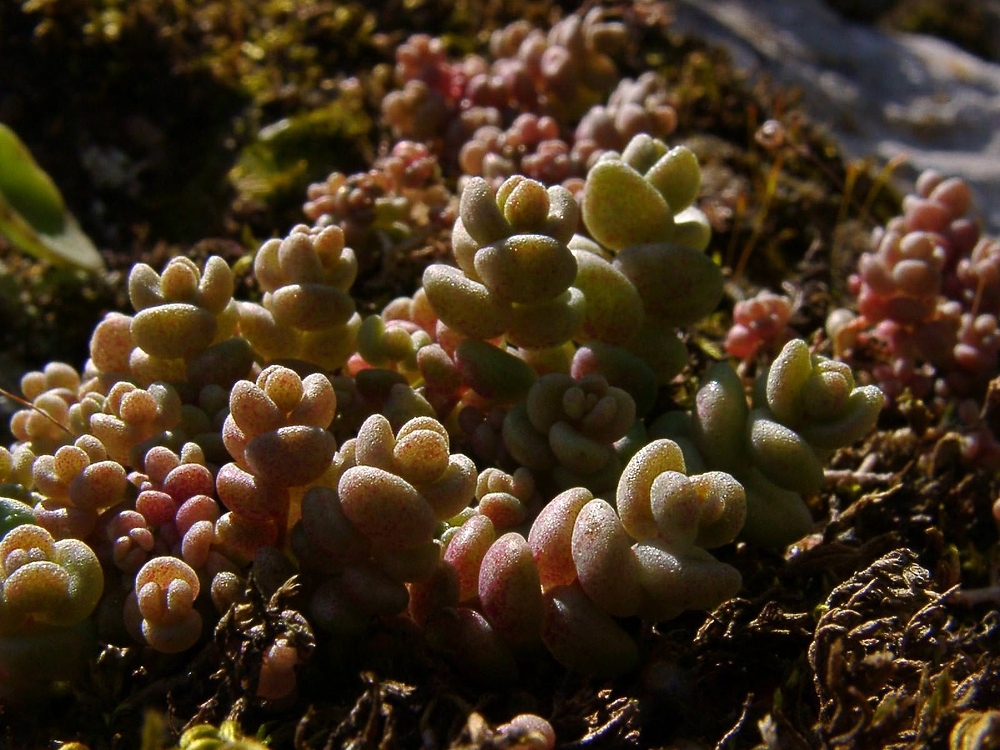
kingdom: Plantae
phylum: Tracheophyta
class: Magnoliopsida
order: Saxifragales
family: Crassulaceae
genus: Sedum
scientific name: Sedum dasyphyllum
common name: Thick-leaf stonecrop
